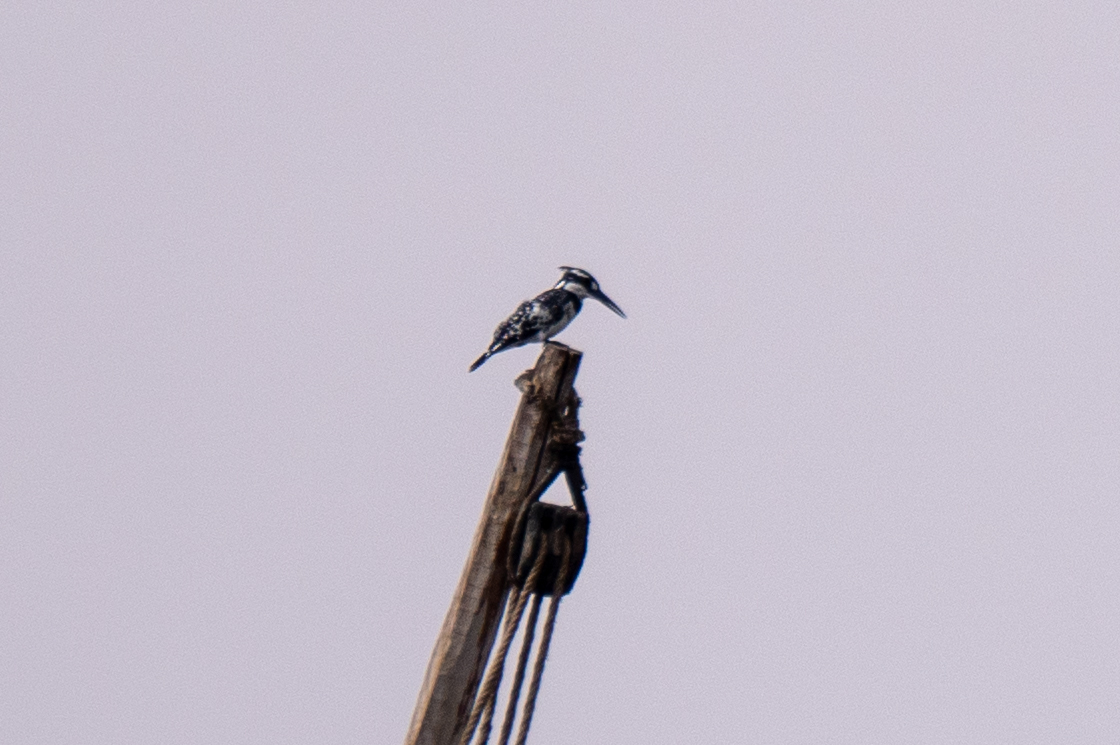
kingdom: Animalia
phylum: Chordata
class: Aves
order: Coraciiformes
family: Alcedinidae
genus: Ceryle
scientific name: Ceryle rudis
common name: Pied kingfisher
